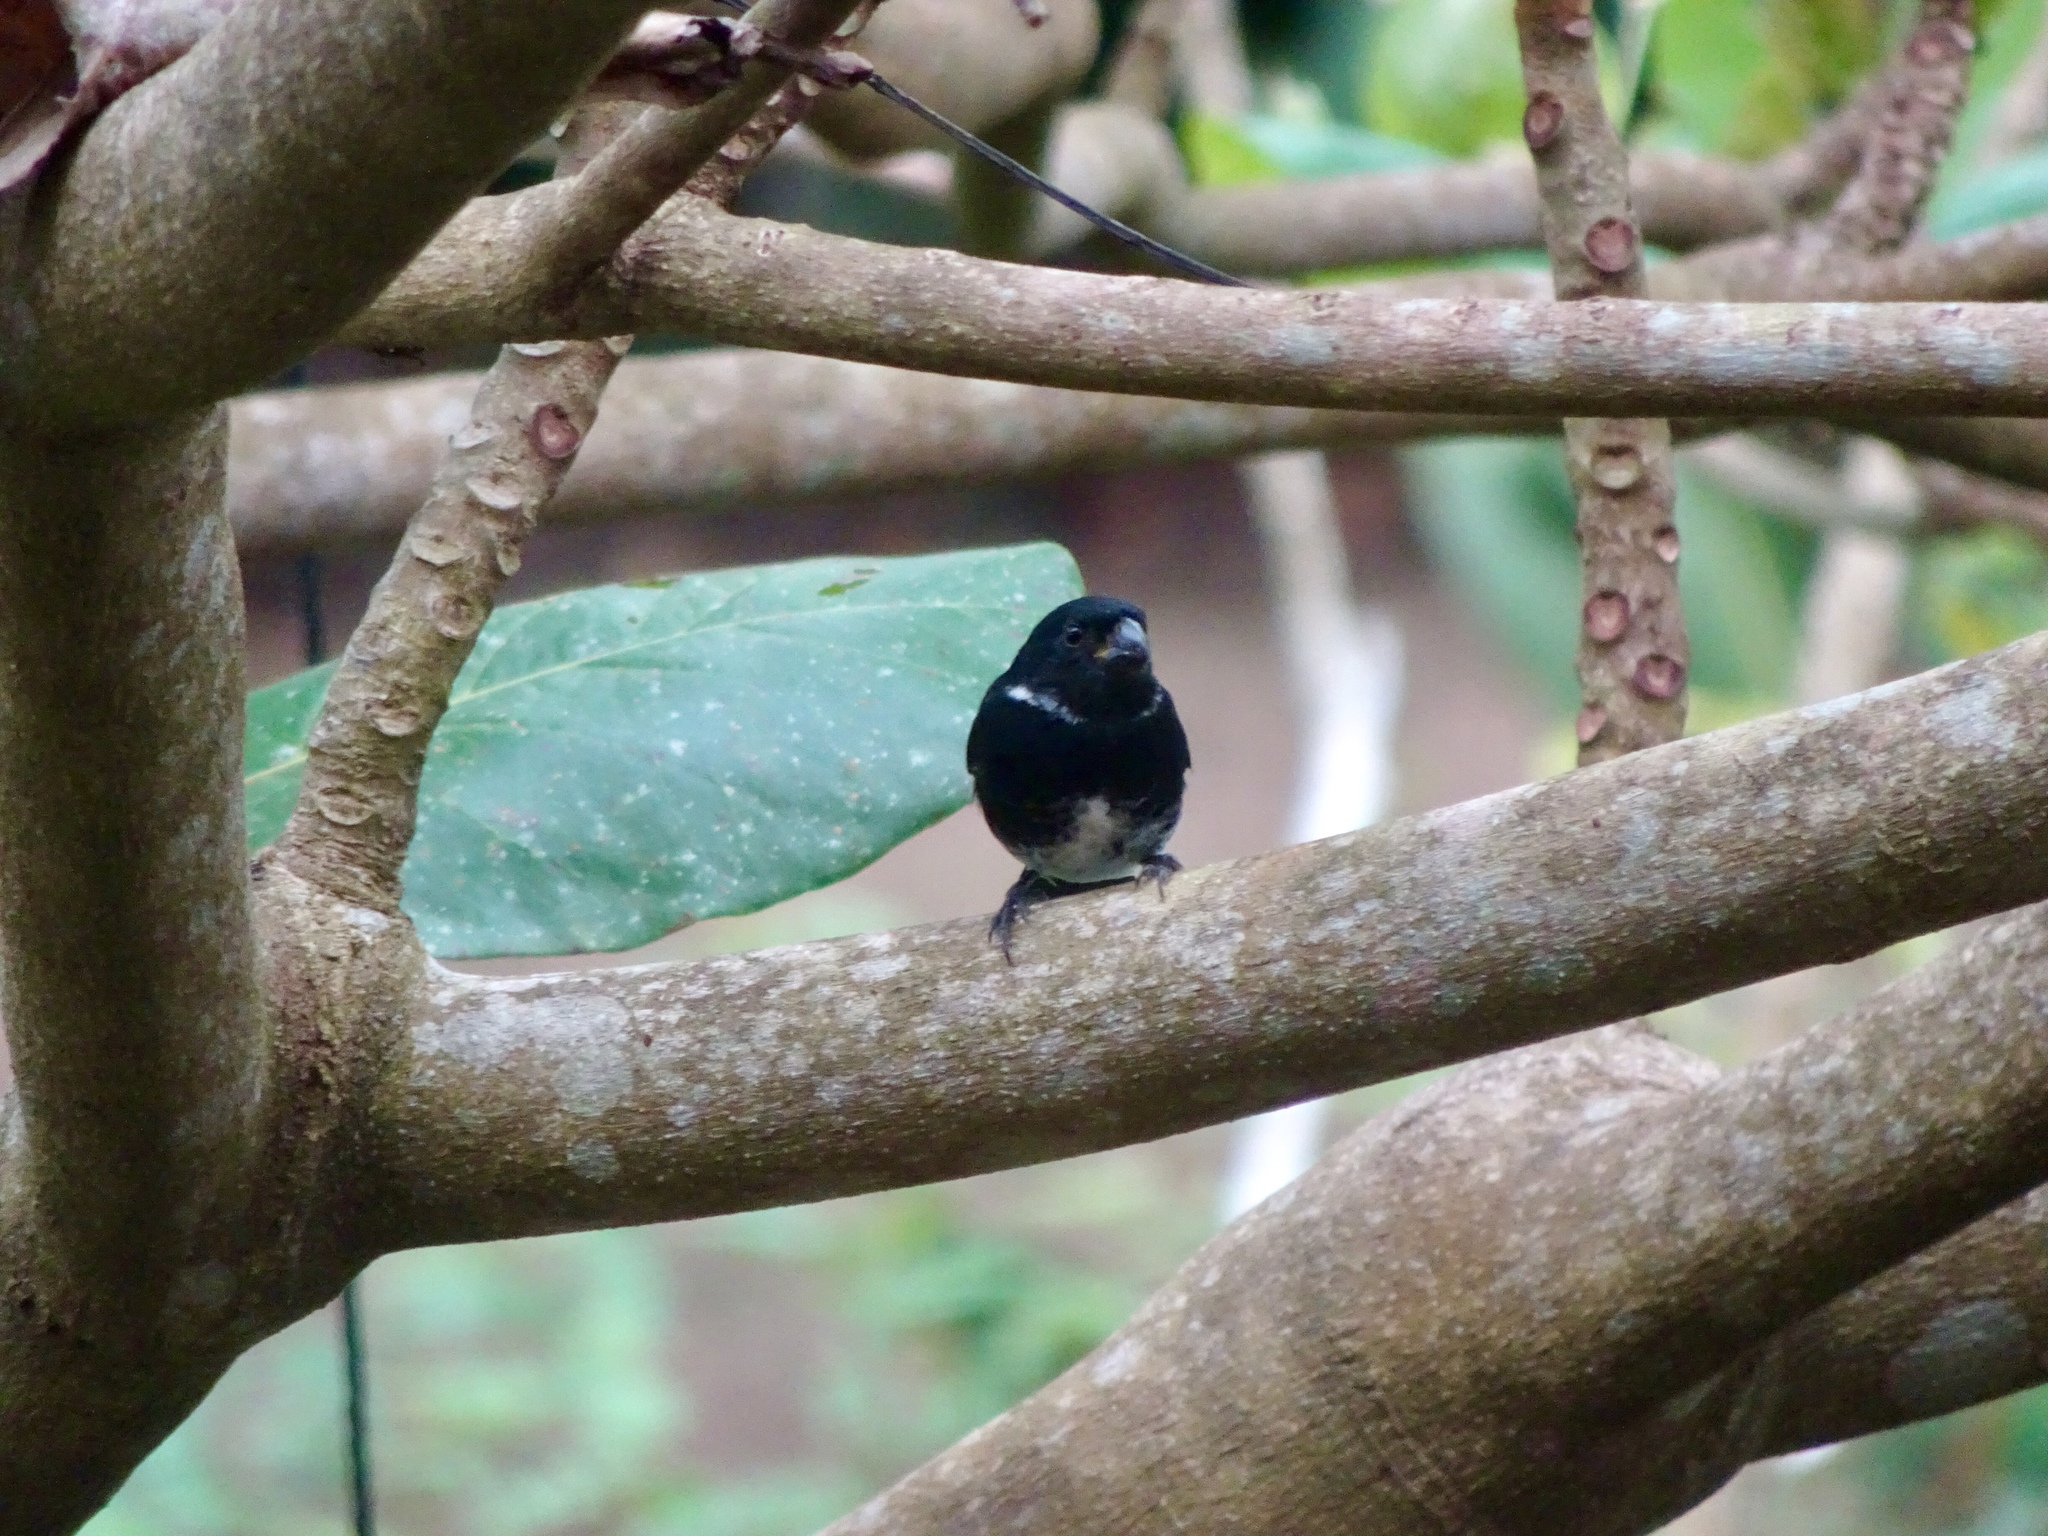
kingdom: Animalia
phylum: Chordata
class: Aves
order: Passeriformes
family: Thraupidae
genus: Sporophila
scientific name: Sporophila corvina
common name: Variable seedeater
